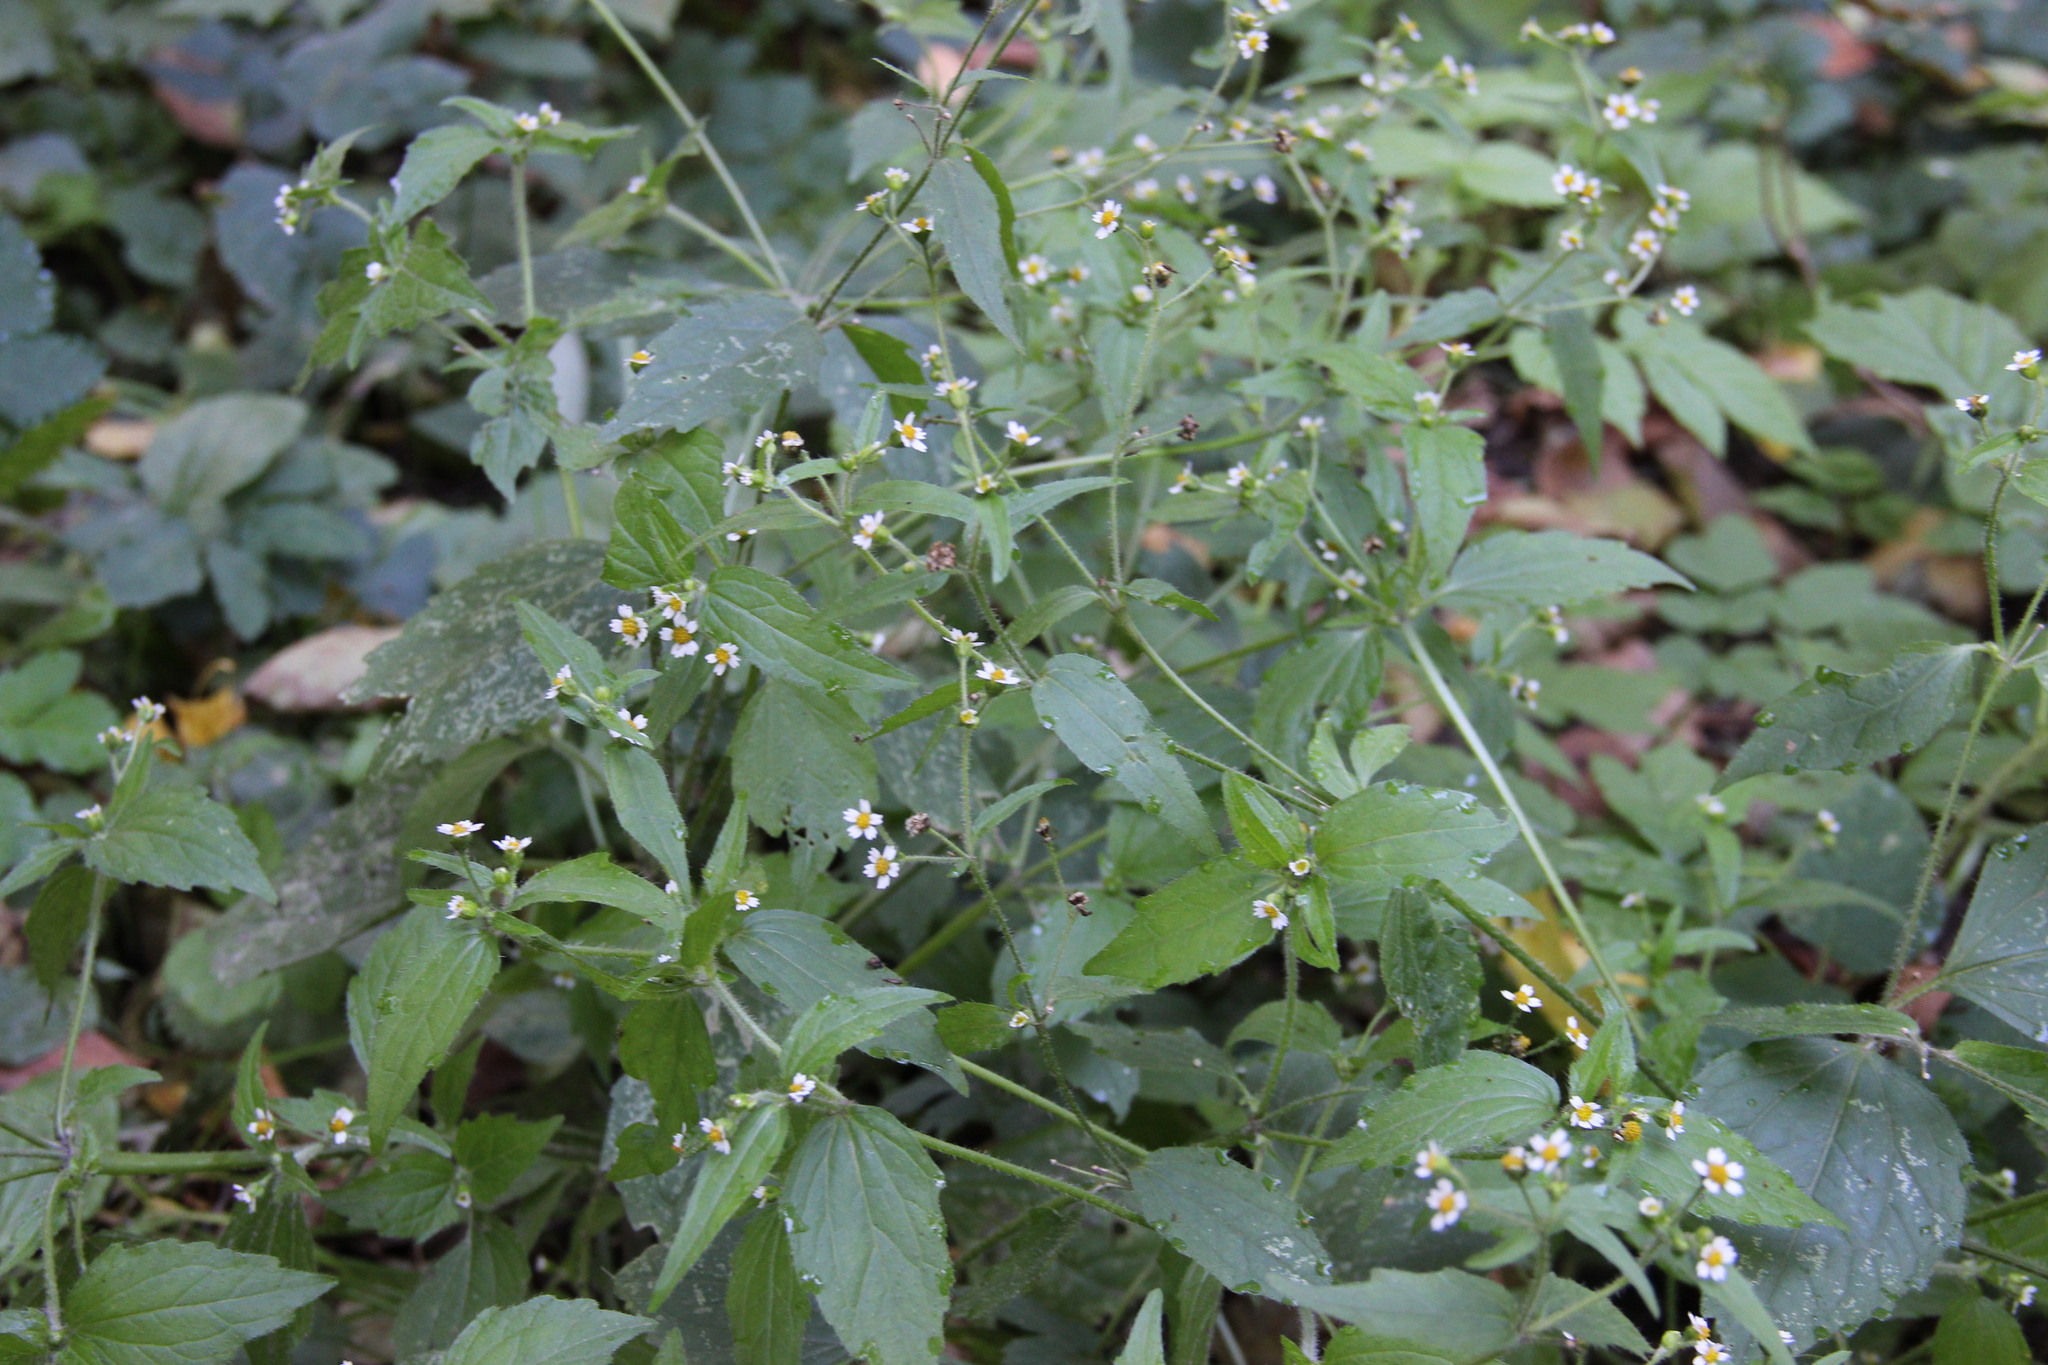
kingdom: Plantae
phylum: Tracheophyta
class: Magnoliopsida
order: Asterales
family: Asteraceae
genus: Galinsoga
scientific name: Galinsoga quadriradiata
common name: Shaggy soldier
